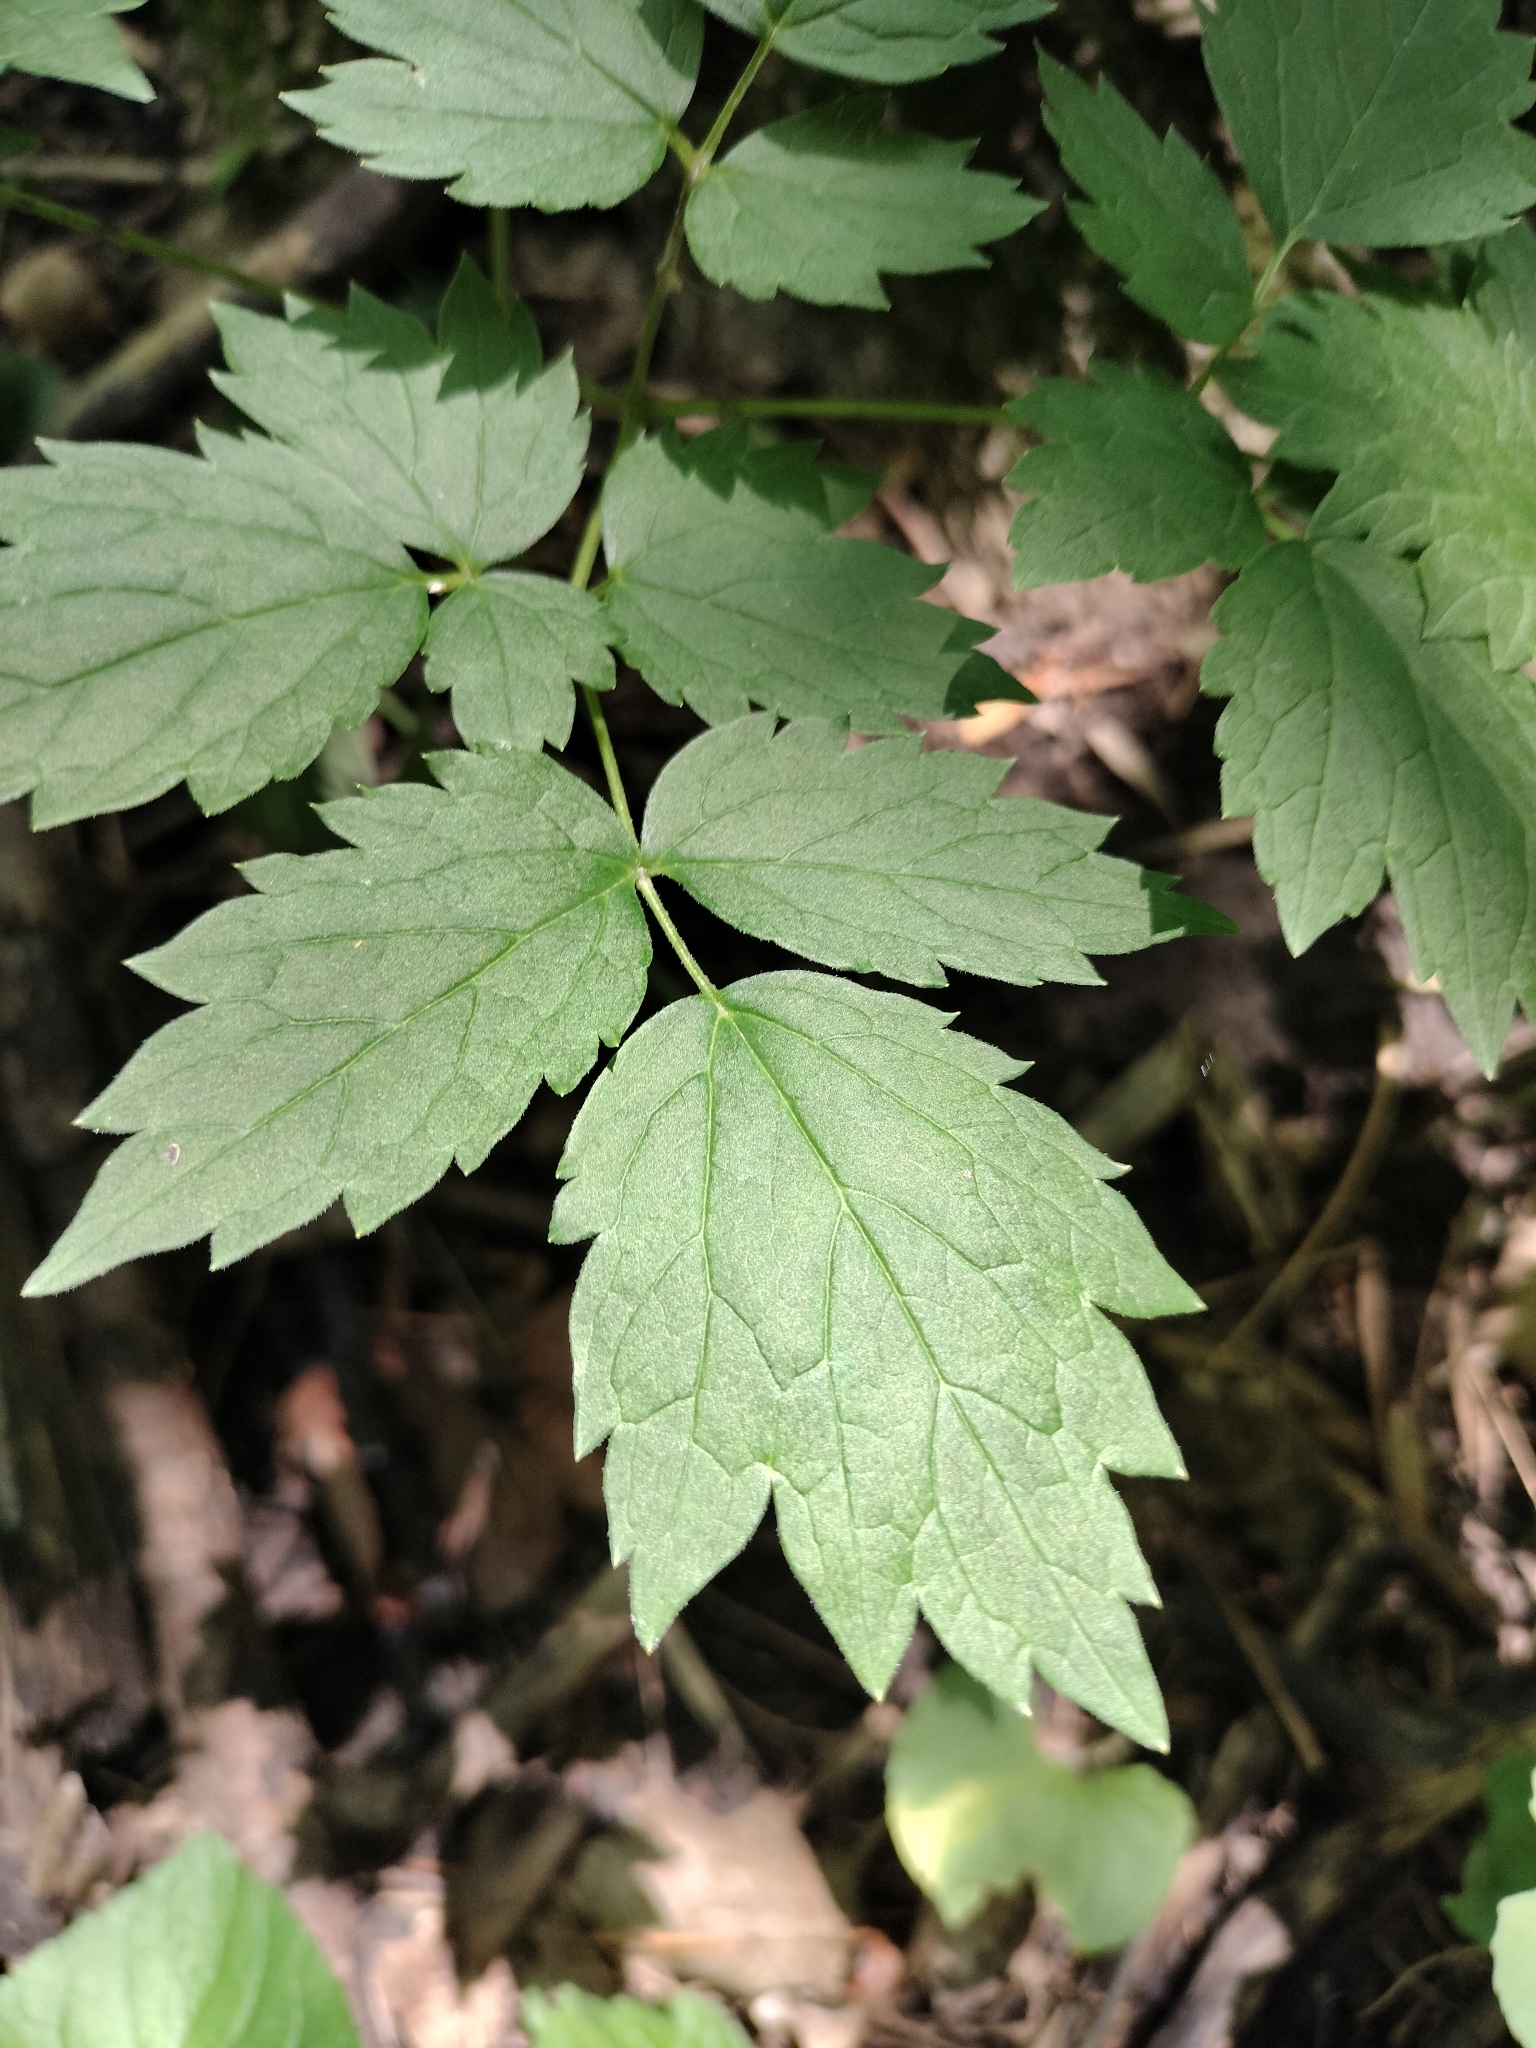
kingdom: Plantae
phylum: Tracheophyta
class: Magnoliopsida
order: Ranunculales
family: Ranunculaceae
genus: Actaea
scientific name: Actaea rubra
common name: Red baneberry
